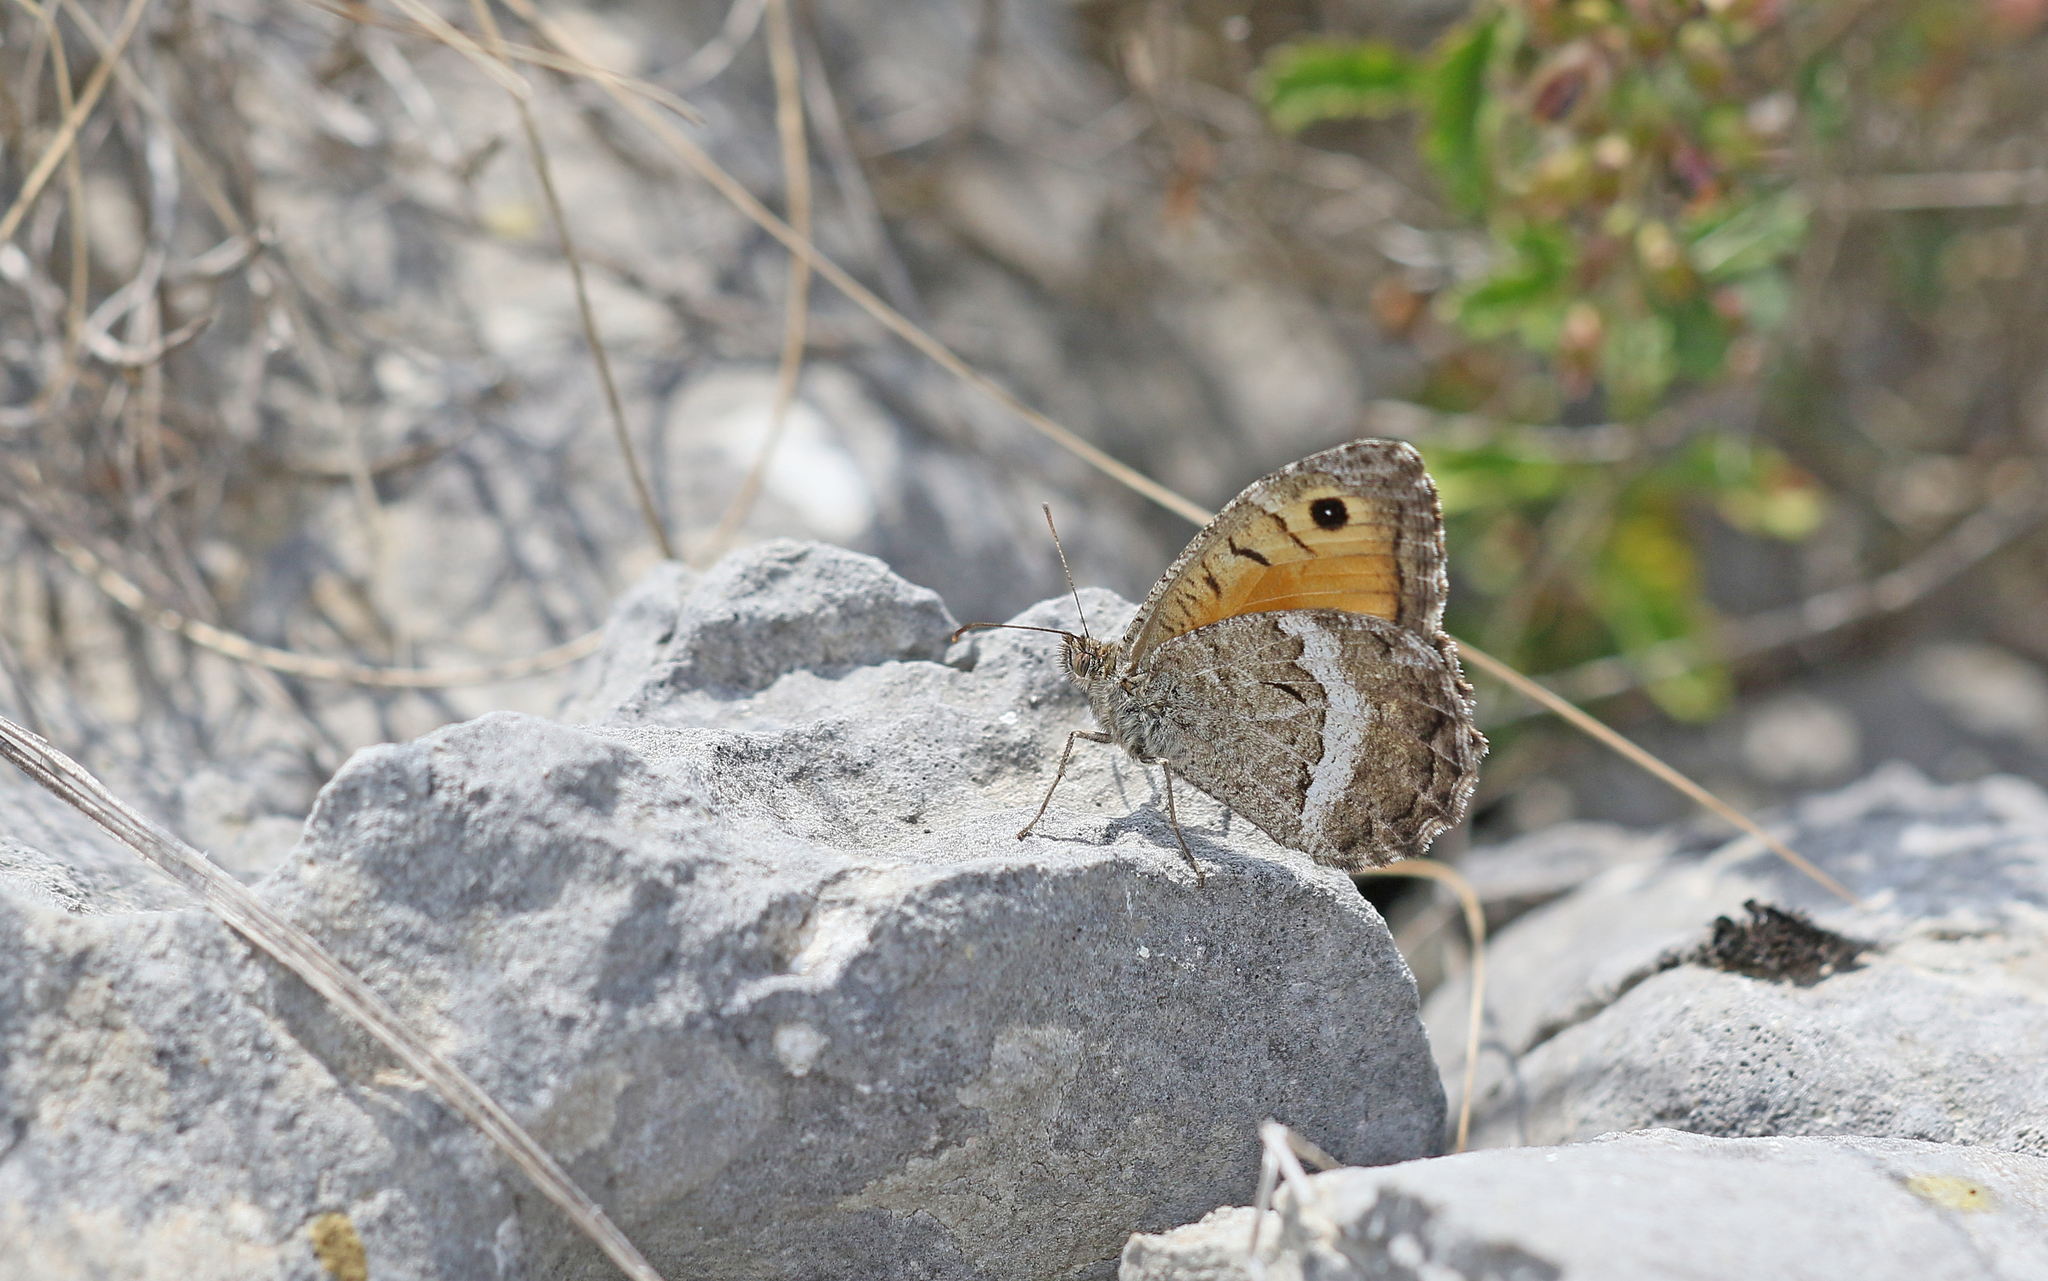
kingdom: Animalia
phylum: Arthropoda
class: Insecta
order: Lepidoptera
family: Nymphalidae
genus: Arethusana
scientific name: Arethusana arethusa
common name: False grayling
